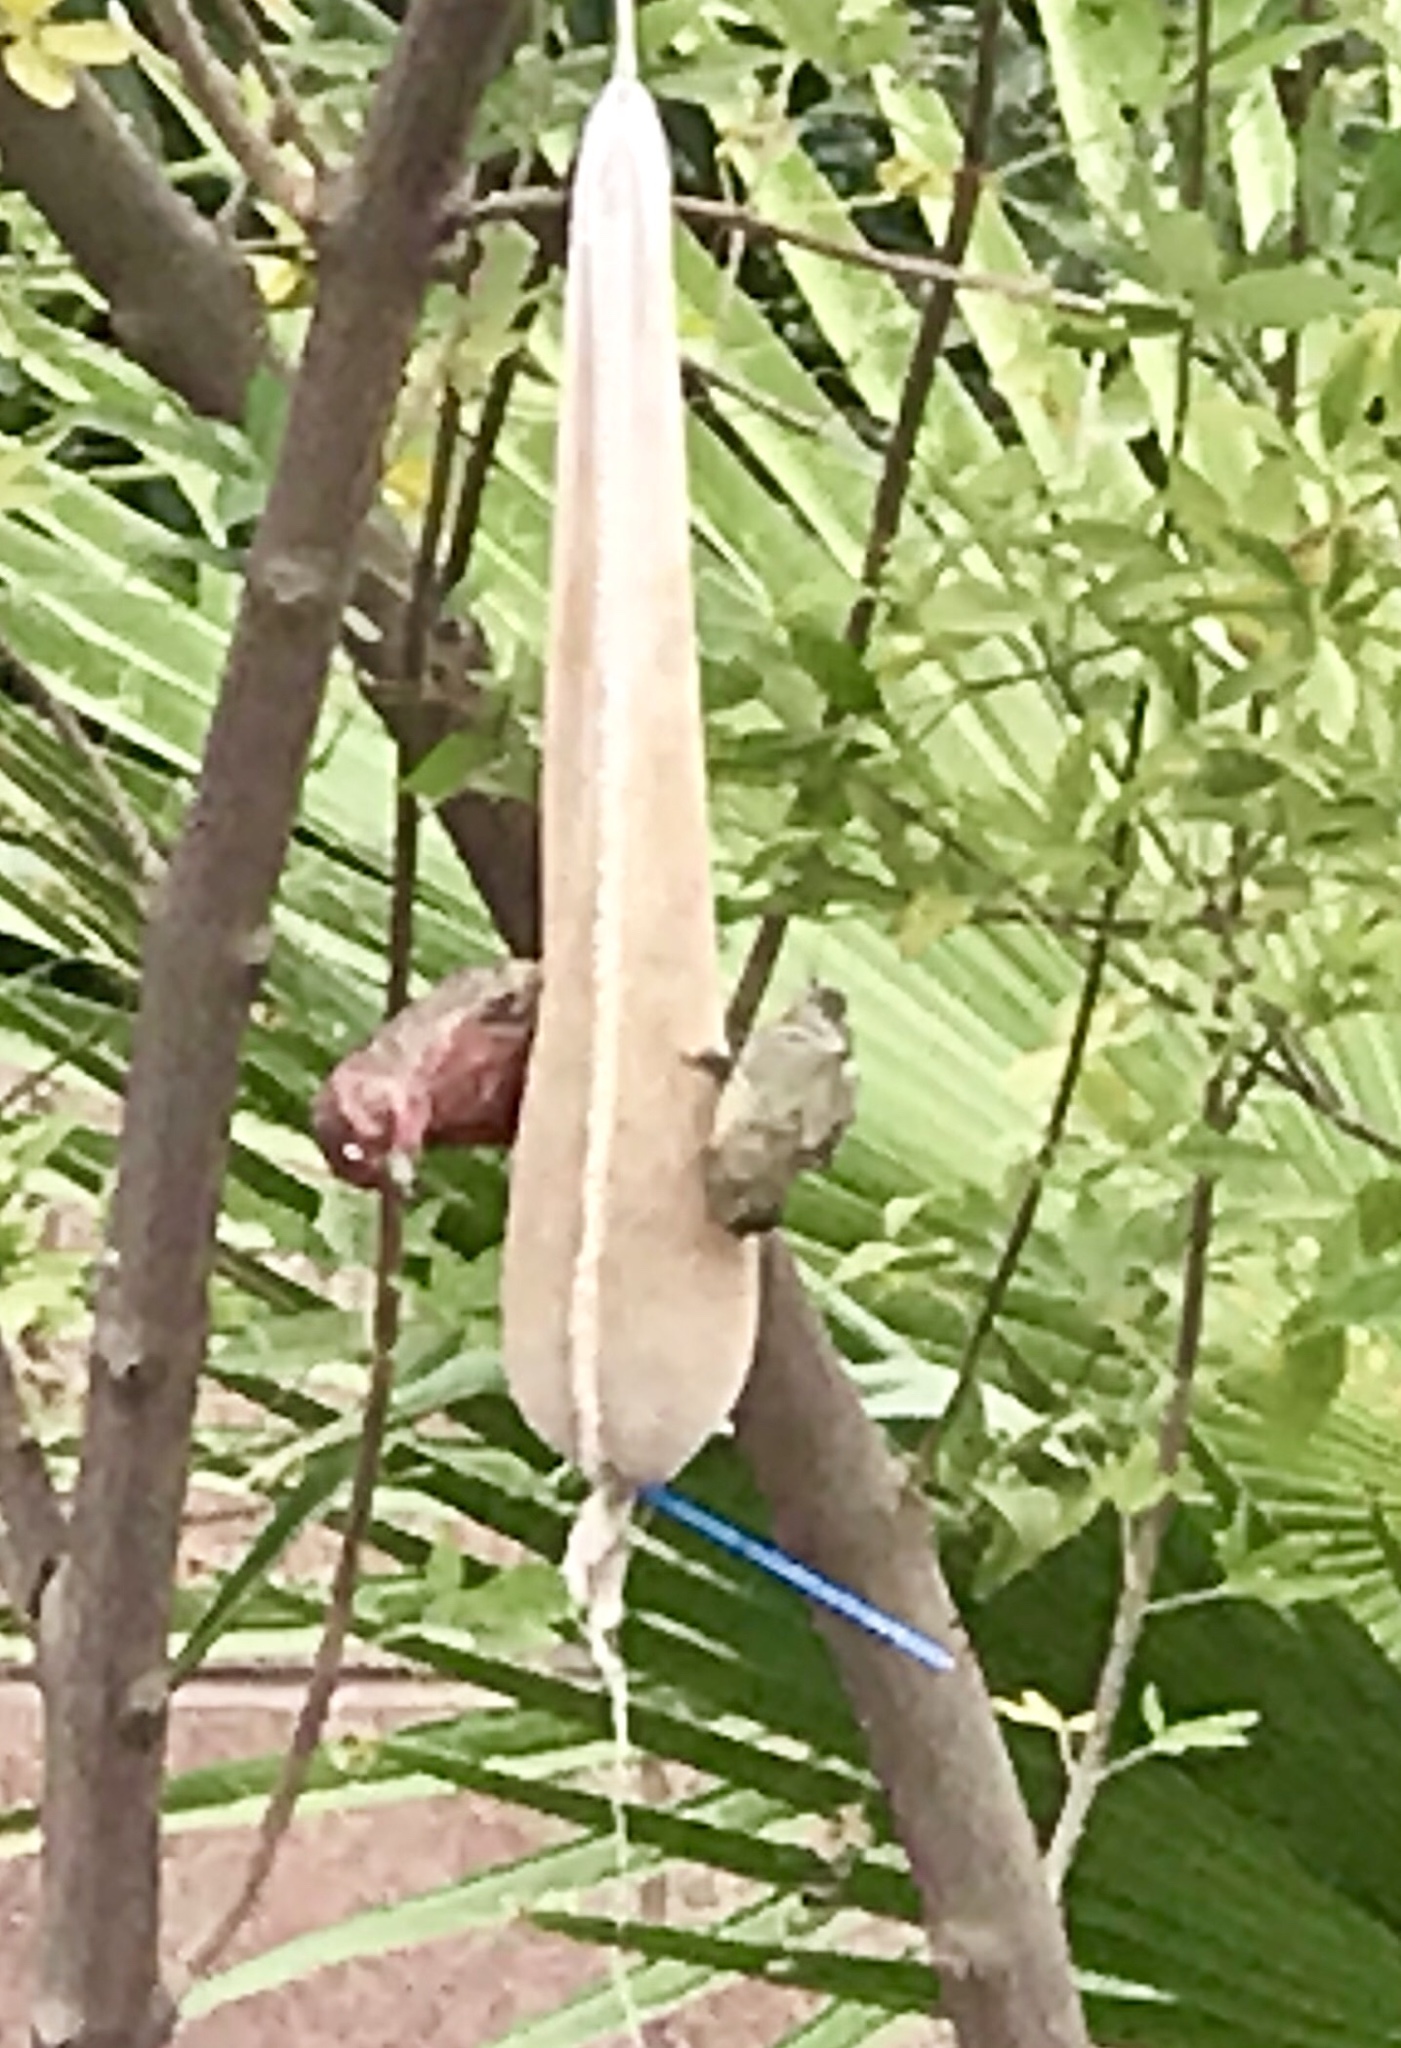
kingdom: Animalia
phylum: Chordata
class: Aves
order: Passeriformes
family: Fringillidae
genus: Haemorhous
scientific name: Haemorhous mexicanus
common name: House finch
